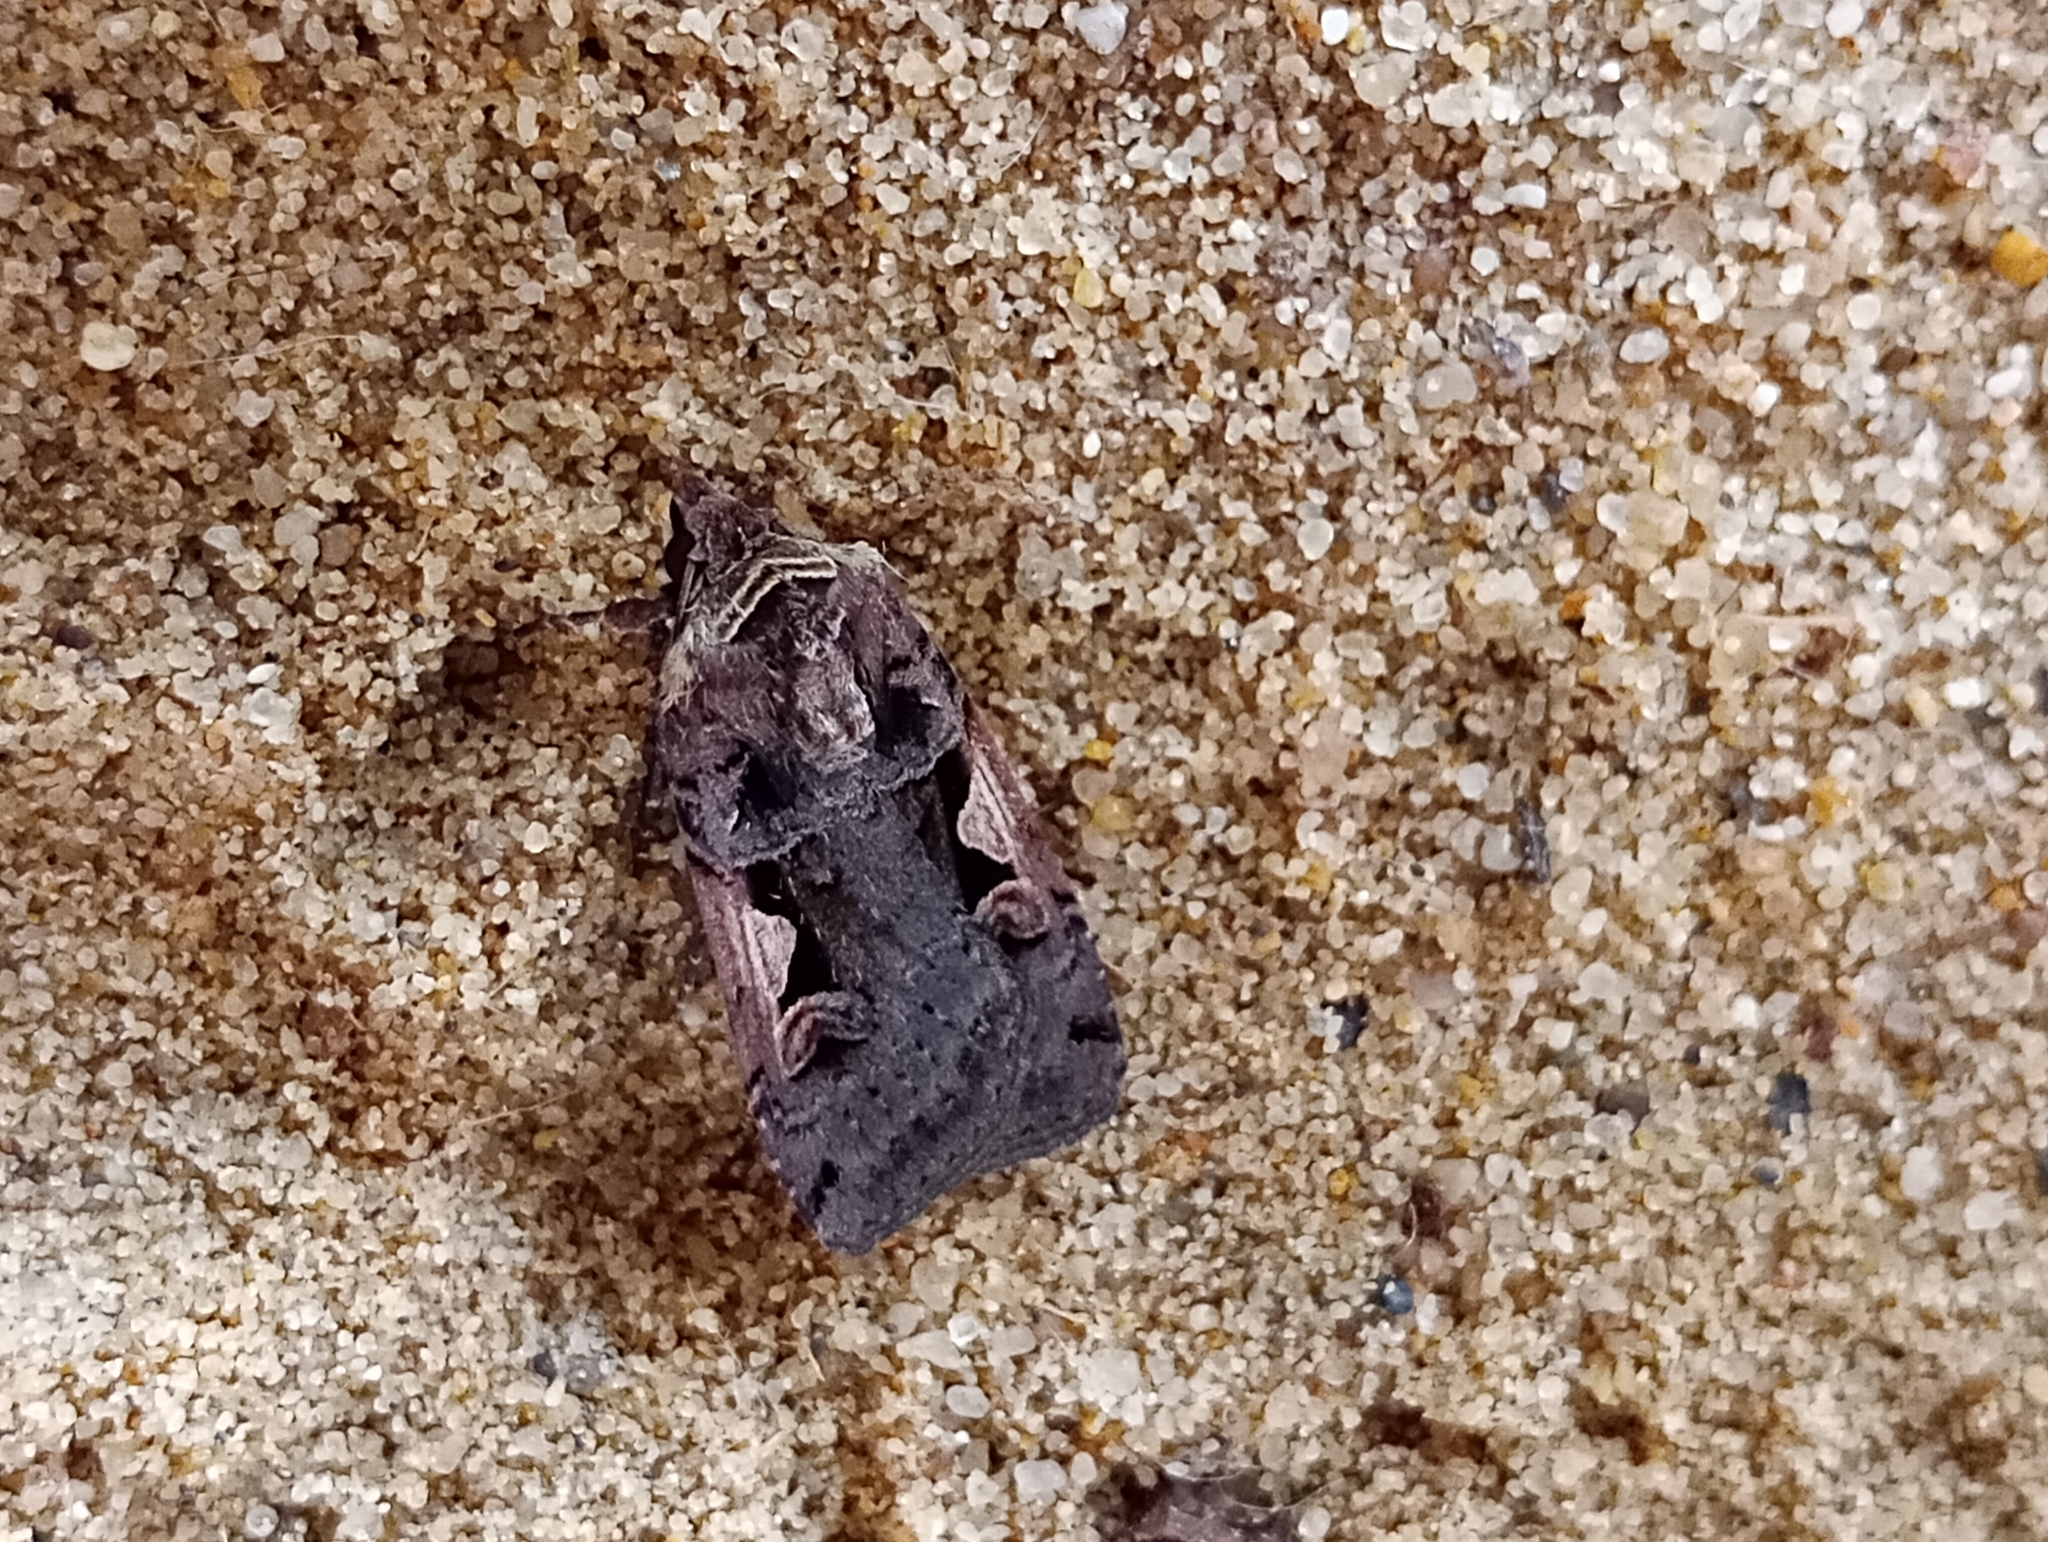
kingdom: Animalia
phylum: Arthropoda
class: Insecta
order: Lepidoptera
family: Noctuidae
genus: Xestia
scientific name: Xestia c-nigrum
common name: Setaceous hebrew character
